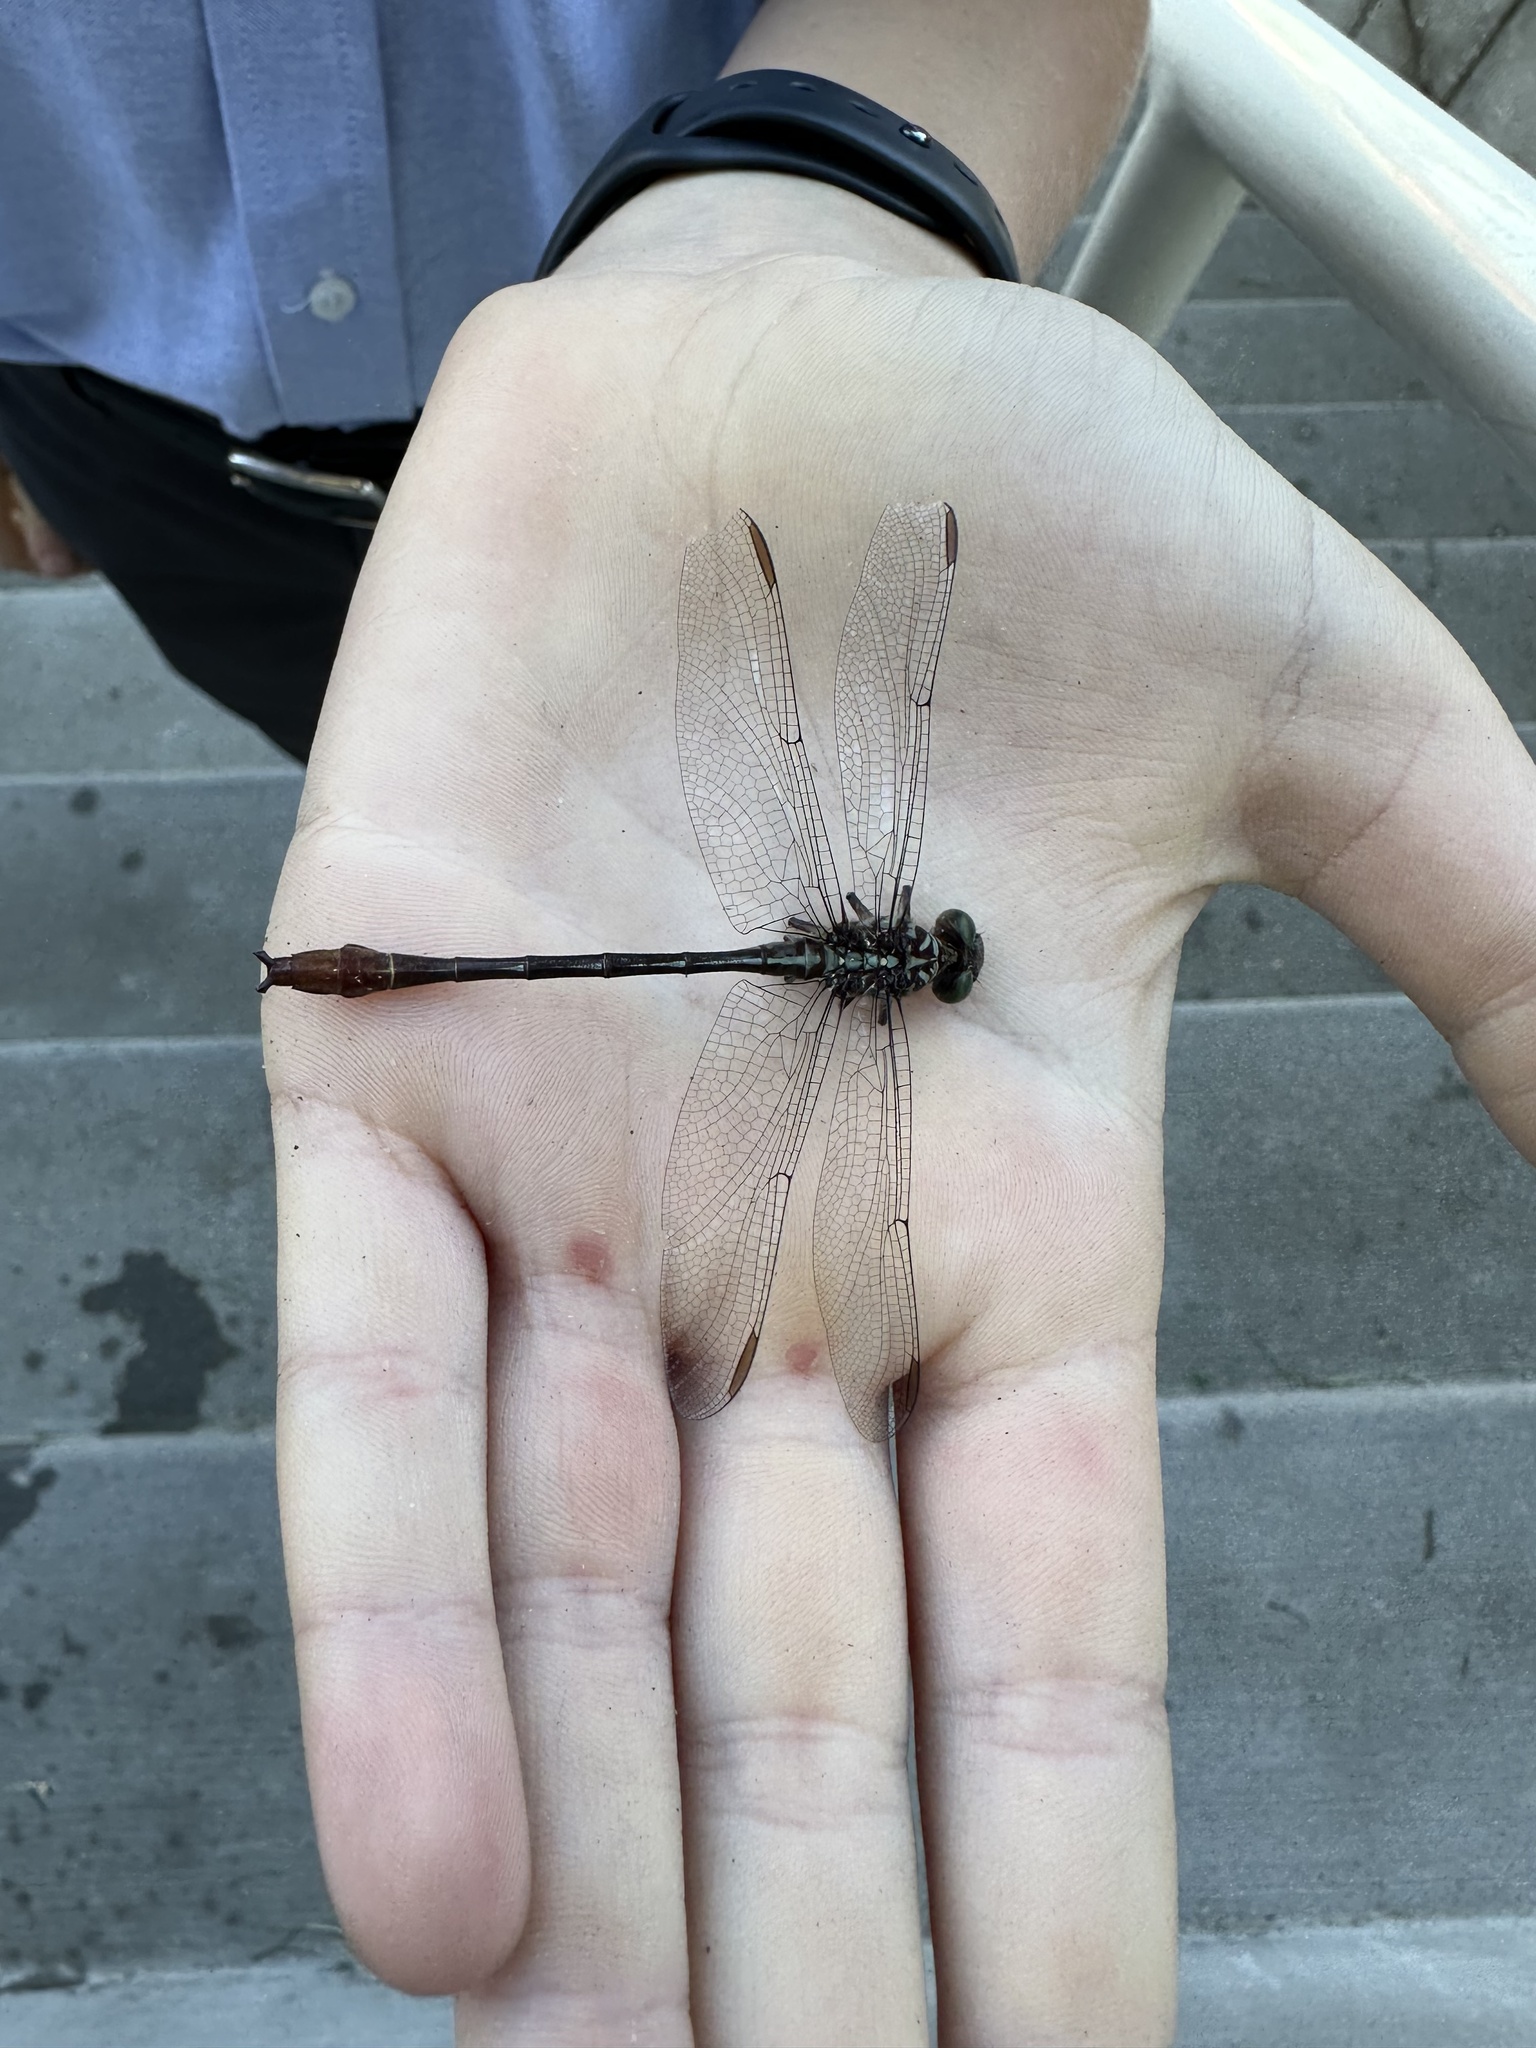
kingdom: Animalia
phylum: Arthropoda
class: Insecta
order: Odonata
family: Gomphidae
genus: Stylurus
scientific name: Stylurus plagiatus
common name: Russet-tipped clubtail
